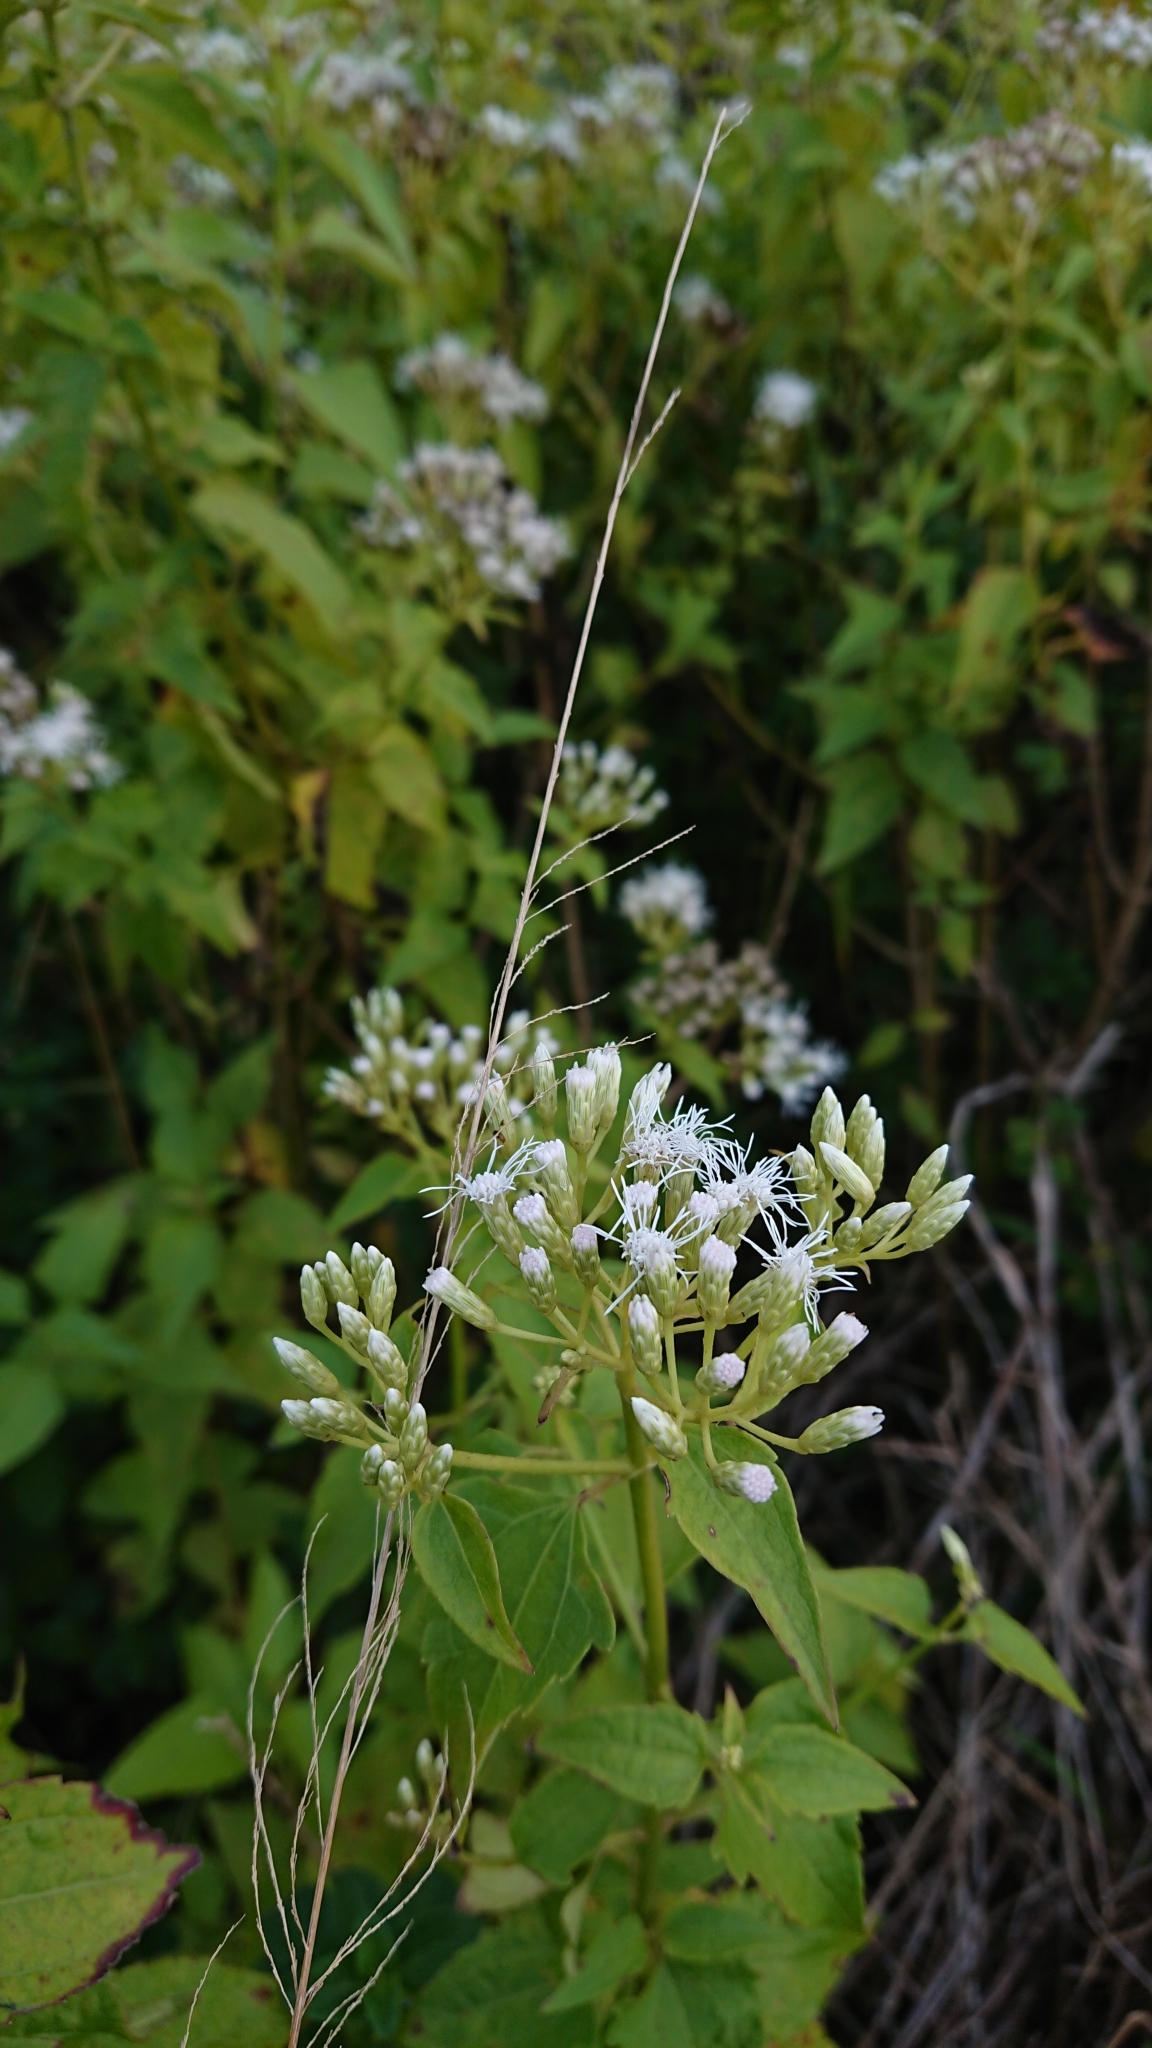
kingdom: Plantae
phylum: Tracheophyta
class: Magnoliopsida
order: Asterales
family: Asteraceae
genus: Chromolaena
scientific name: Chromolaena odorata
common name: Siamweed
